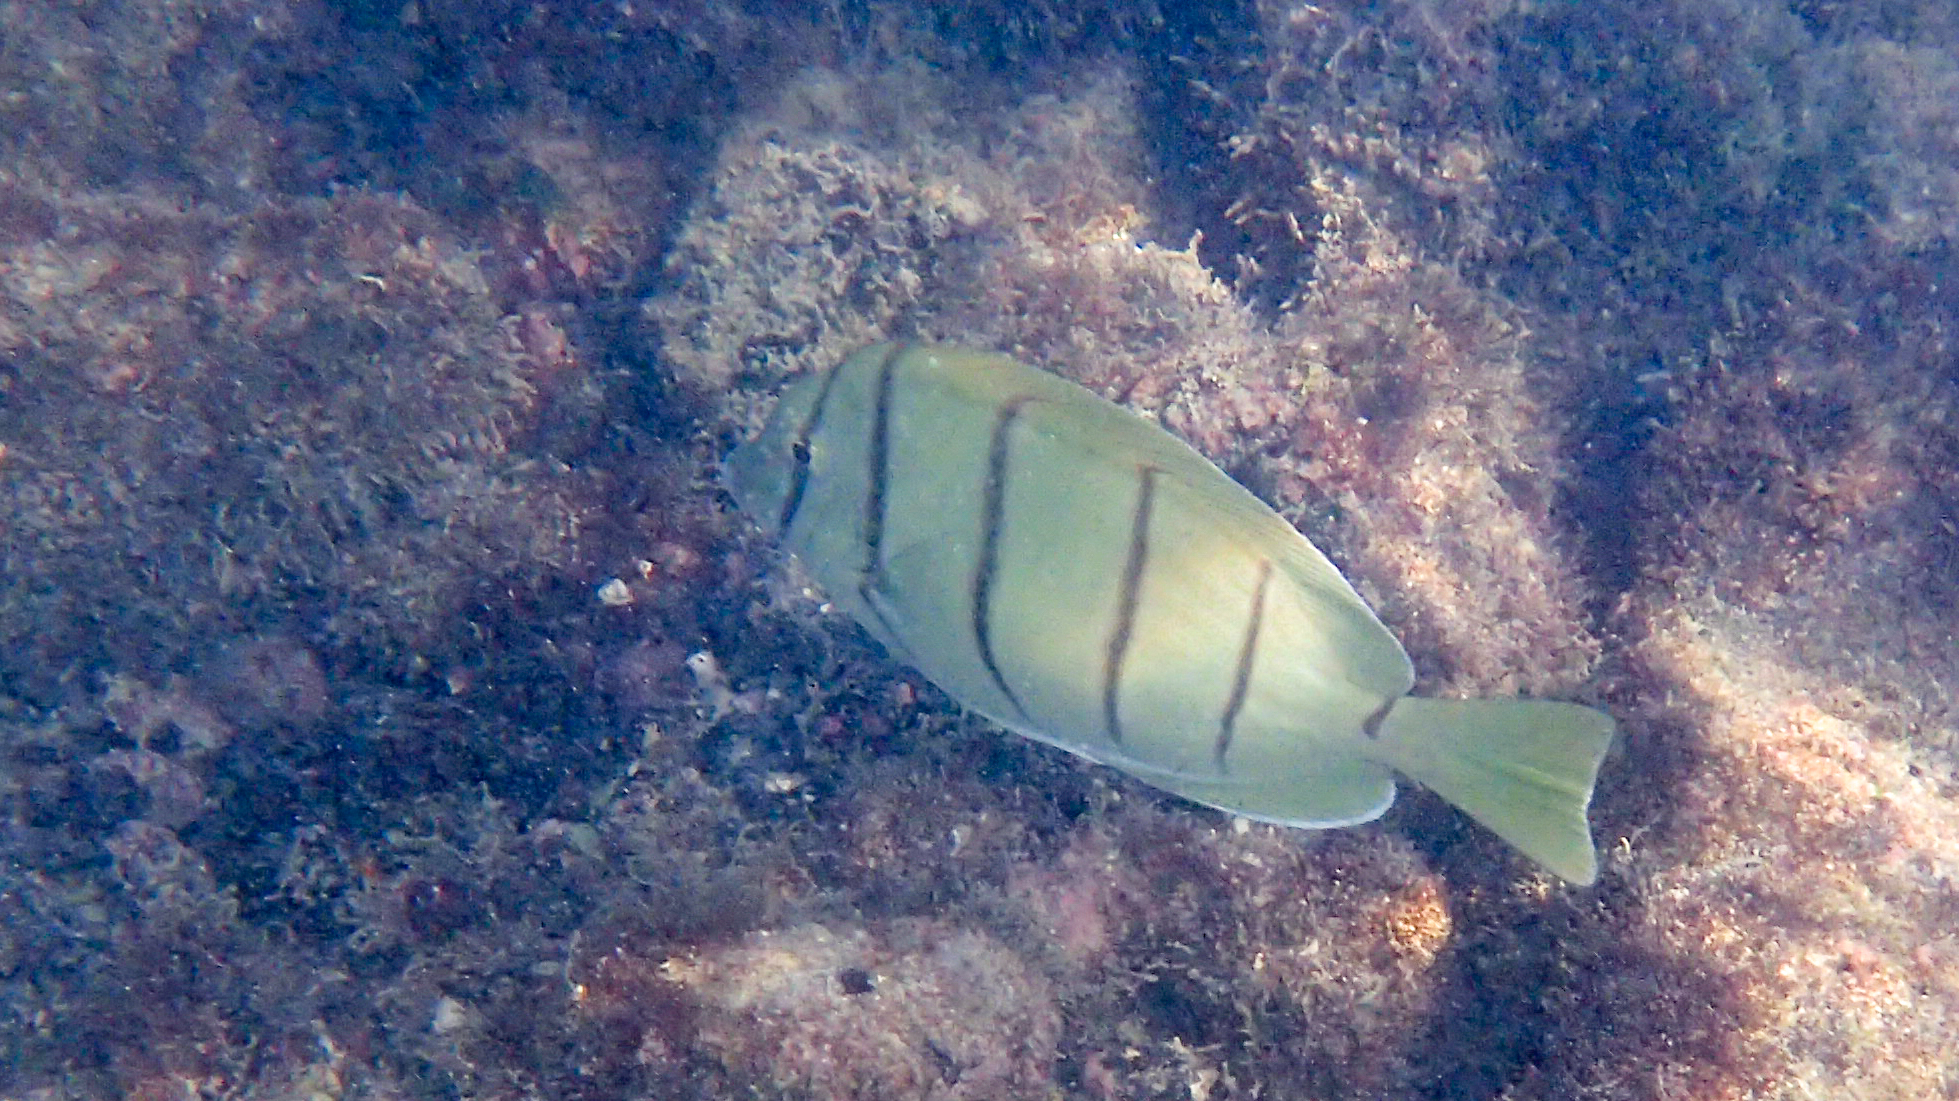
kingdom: Animalia
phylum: Chordata
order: Perciformes
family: Acanthuridae
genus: Acanthurus
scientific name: Acanthurus triostegus
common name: Convict surgeonfish
